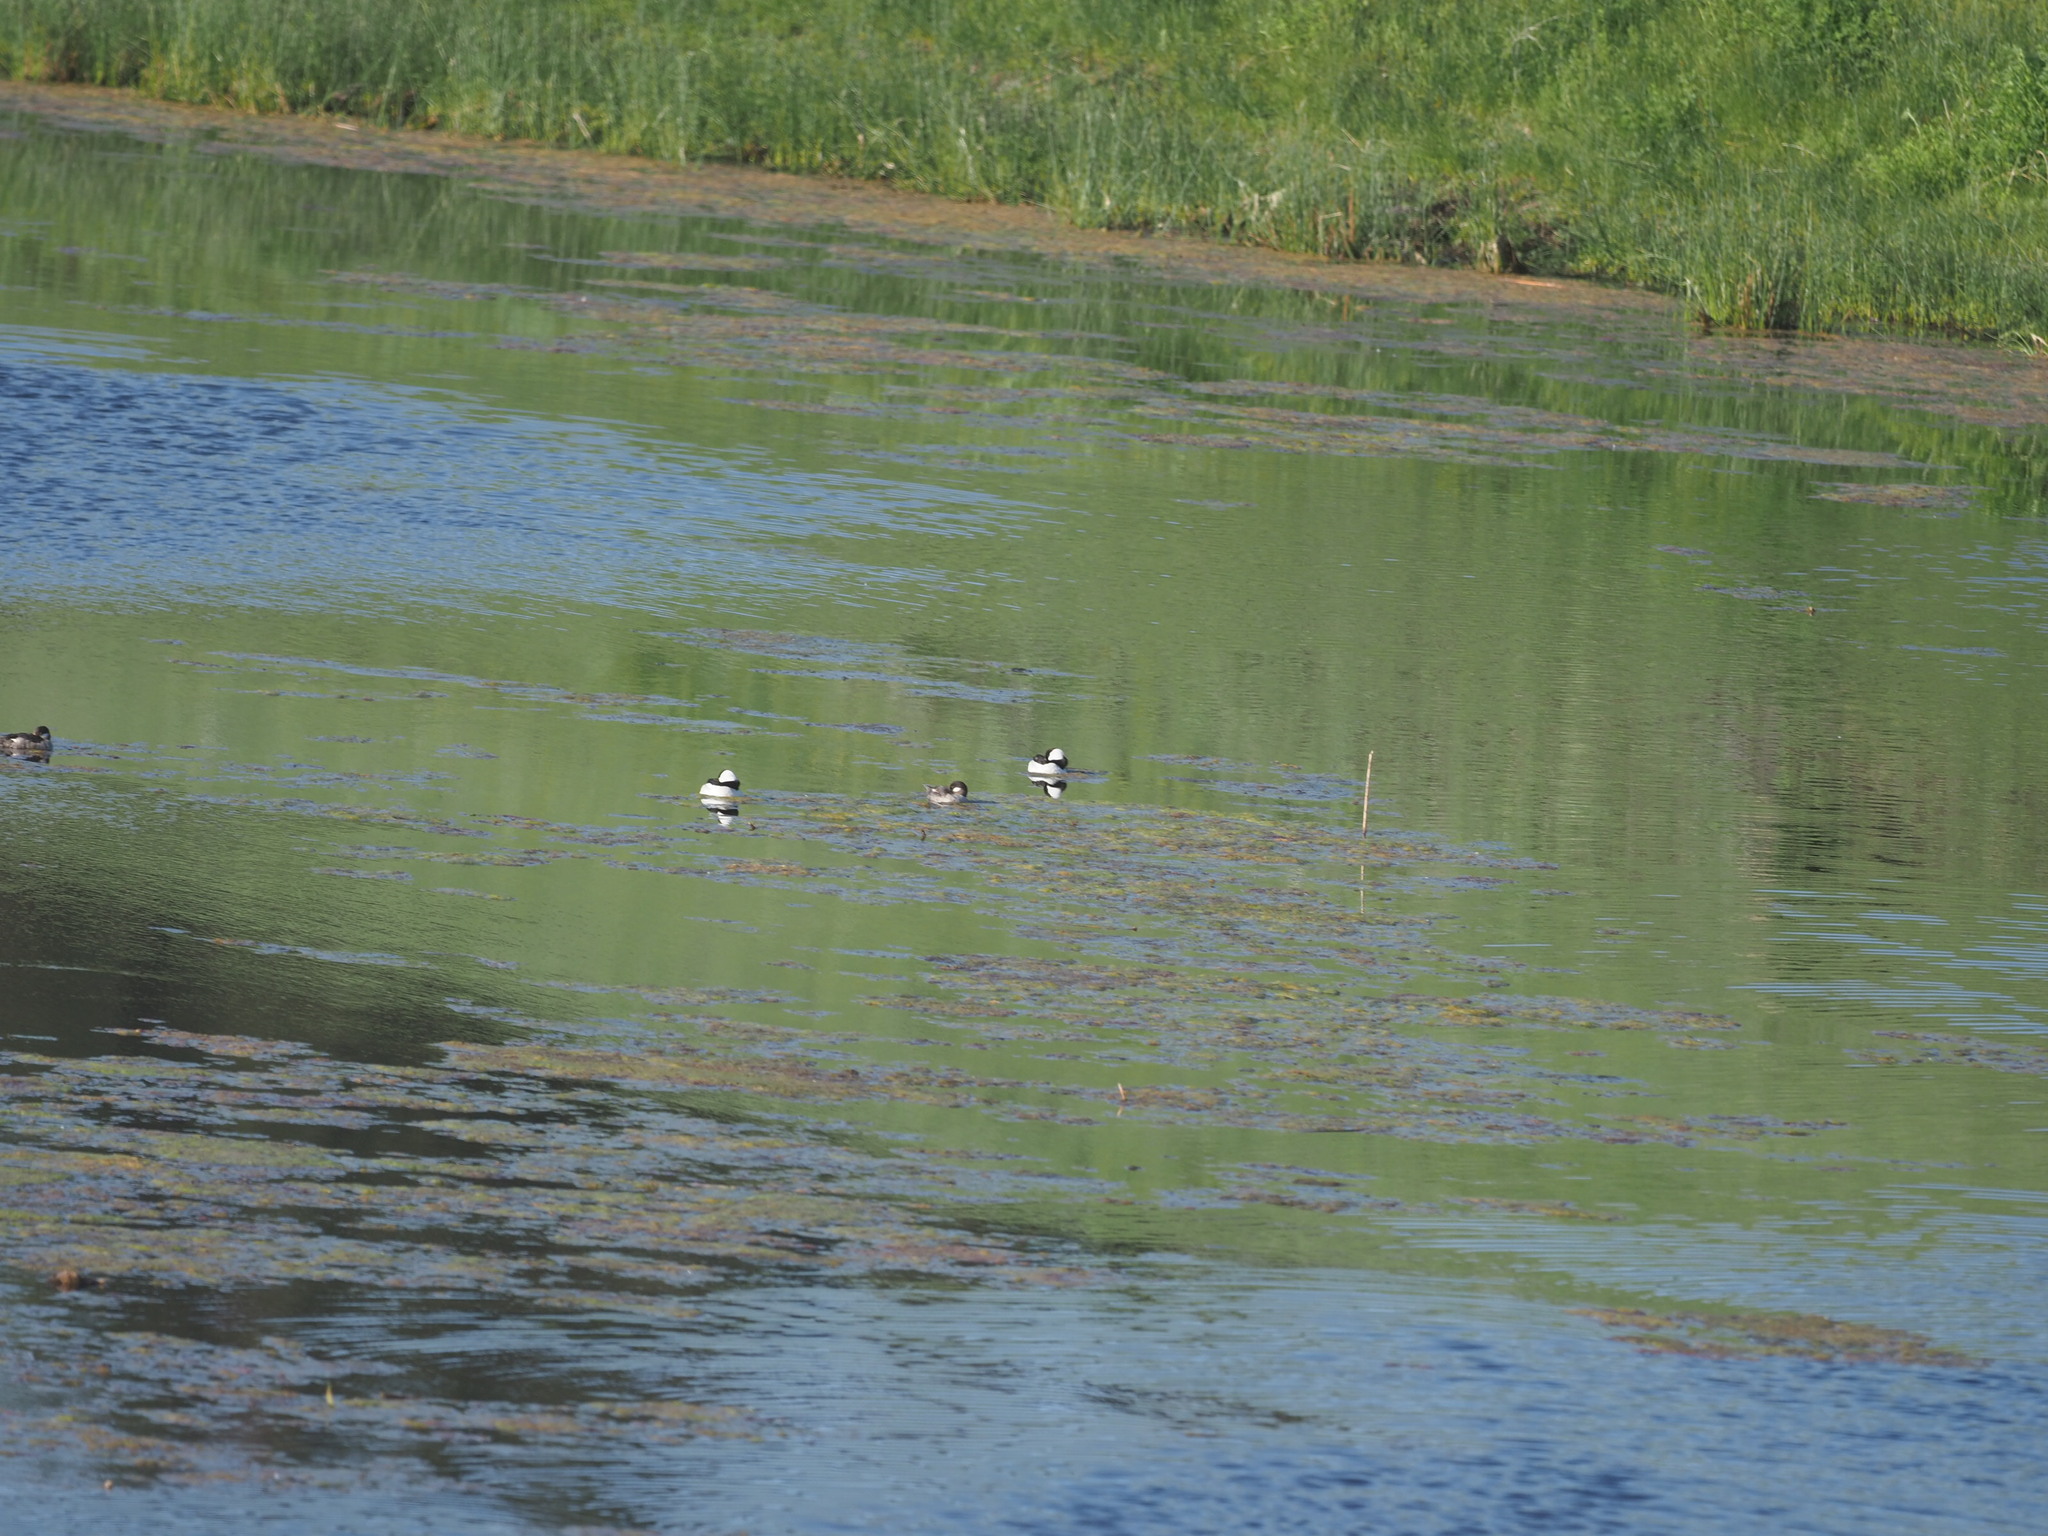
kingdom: Animalia
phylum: Chordata
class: Aves
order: Anseriformes
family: Anatidae
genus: Bucephala
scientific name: Bucephala albeola
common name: Bufflehead
